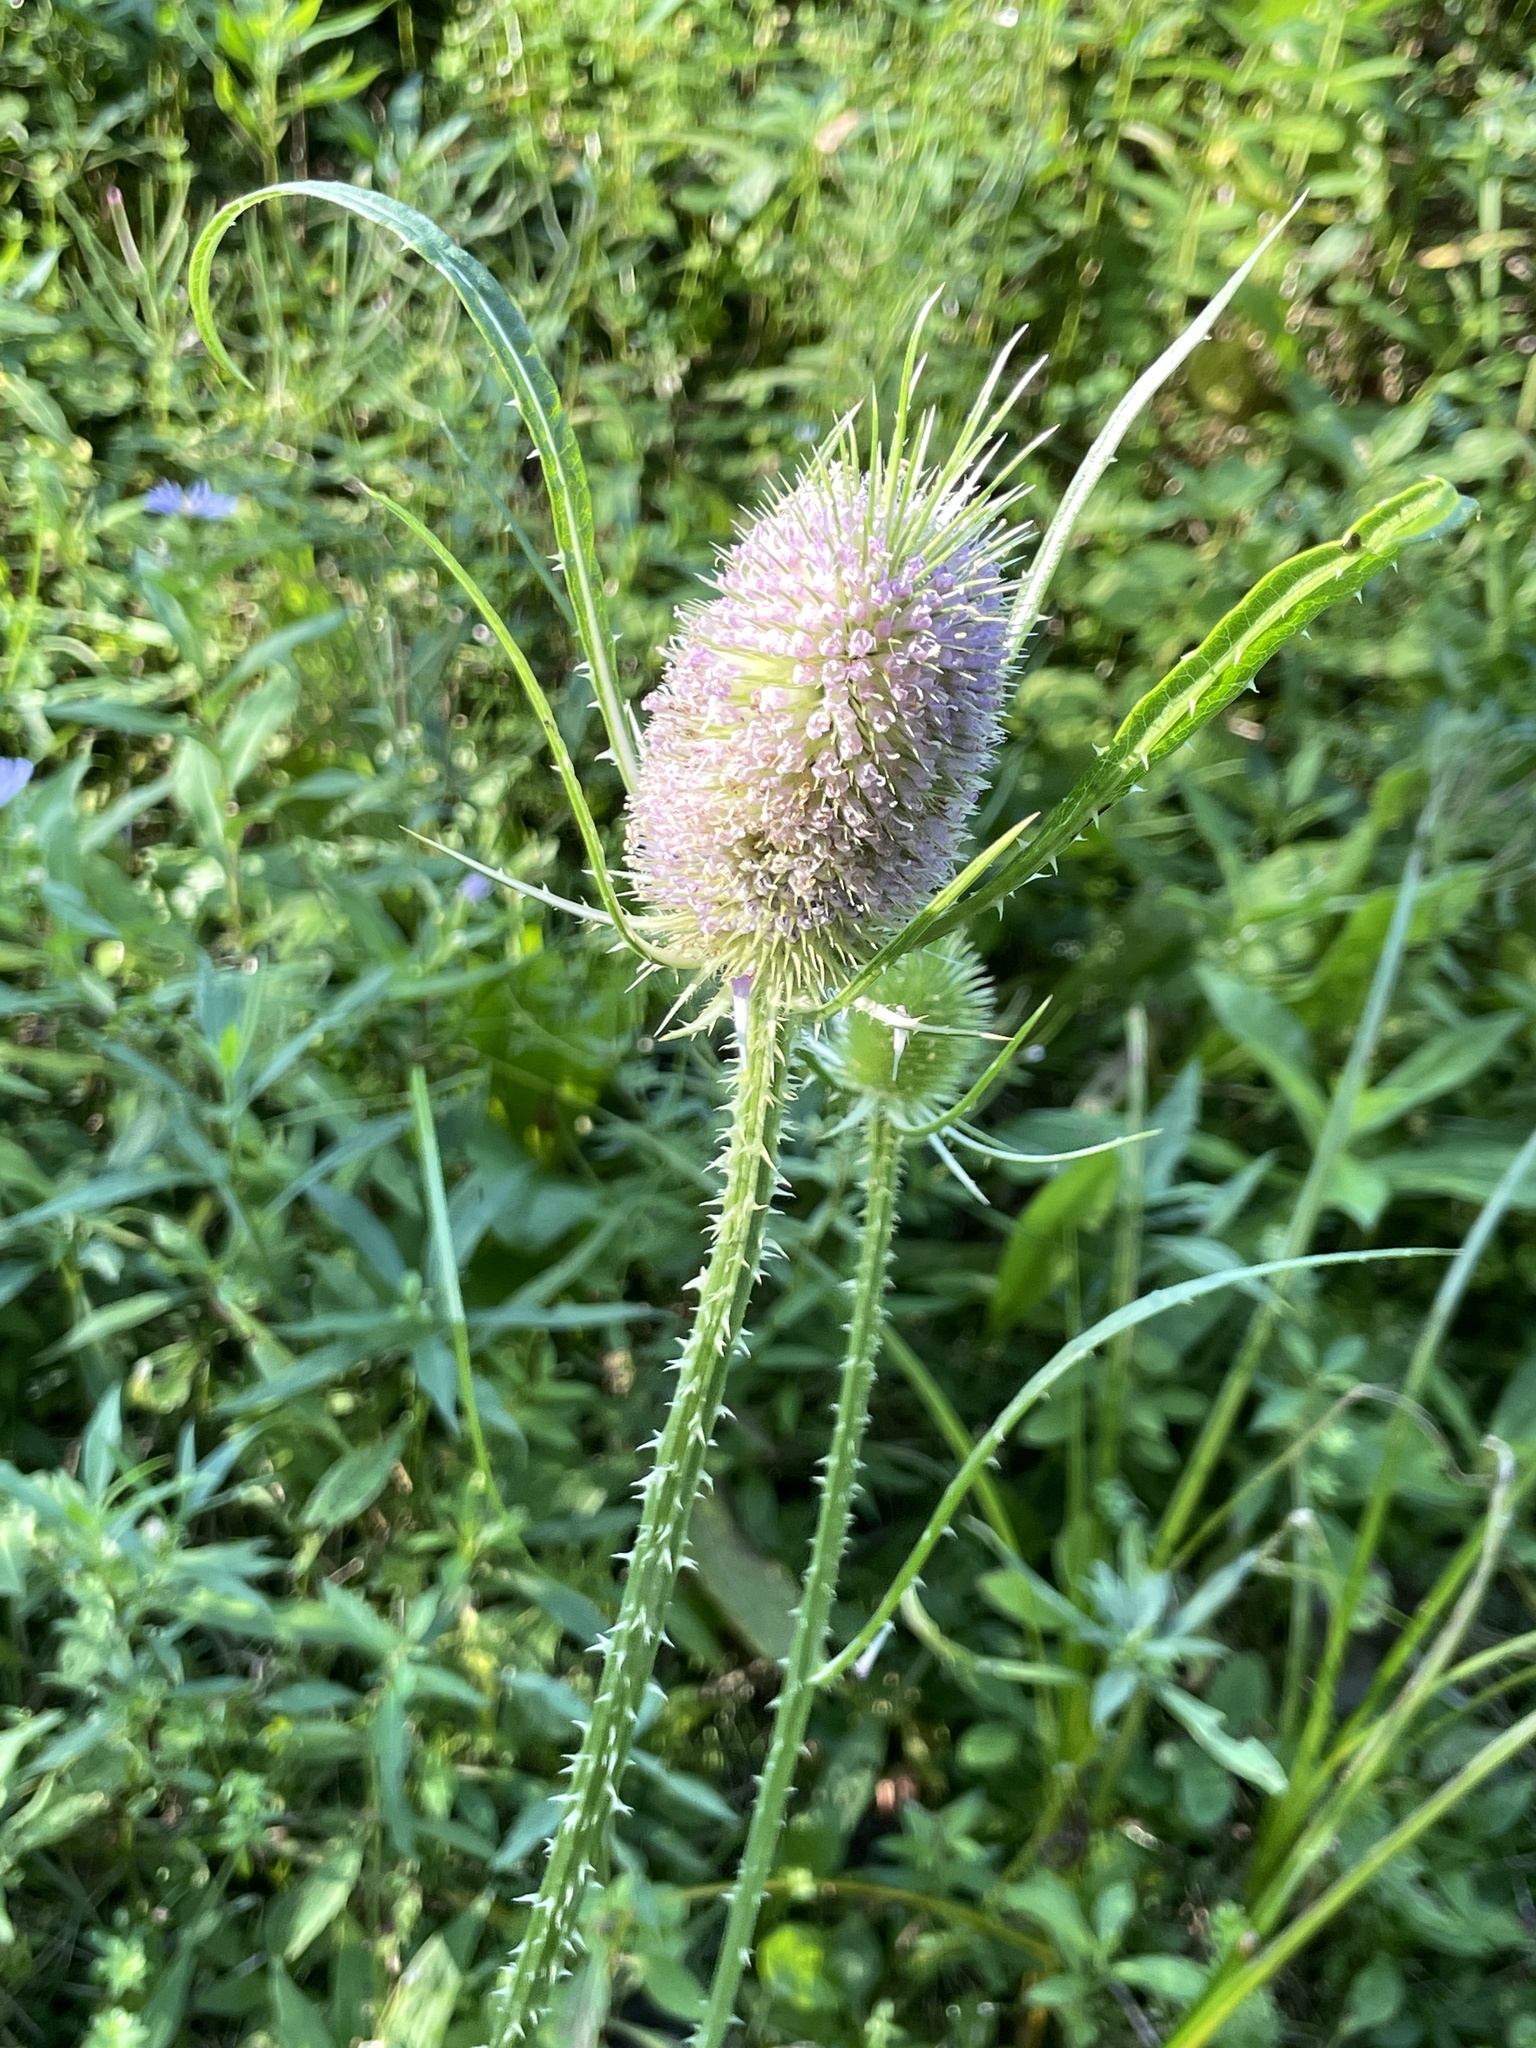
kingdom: Plantae
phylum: Tracheophyta
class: Magnoliopsida
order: Dipsacales
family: Caprifoliaceae
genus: Dipsacus
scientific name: Dipsacus fullonum
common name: Teasel
